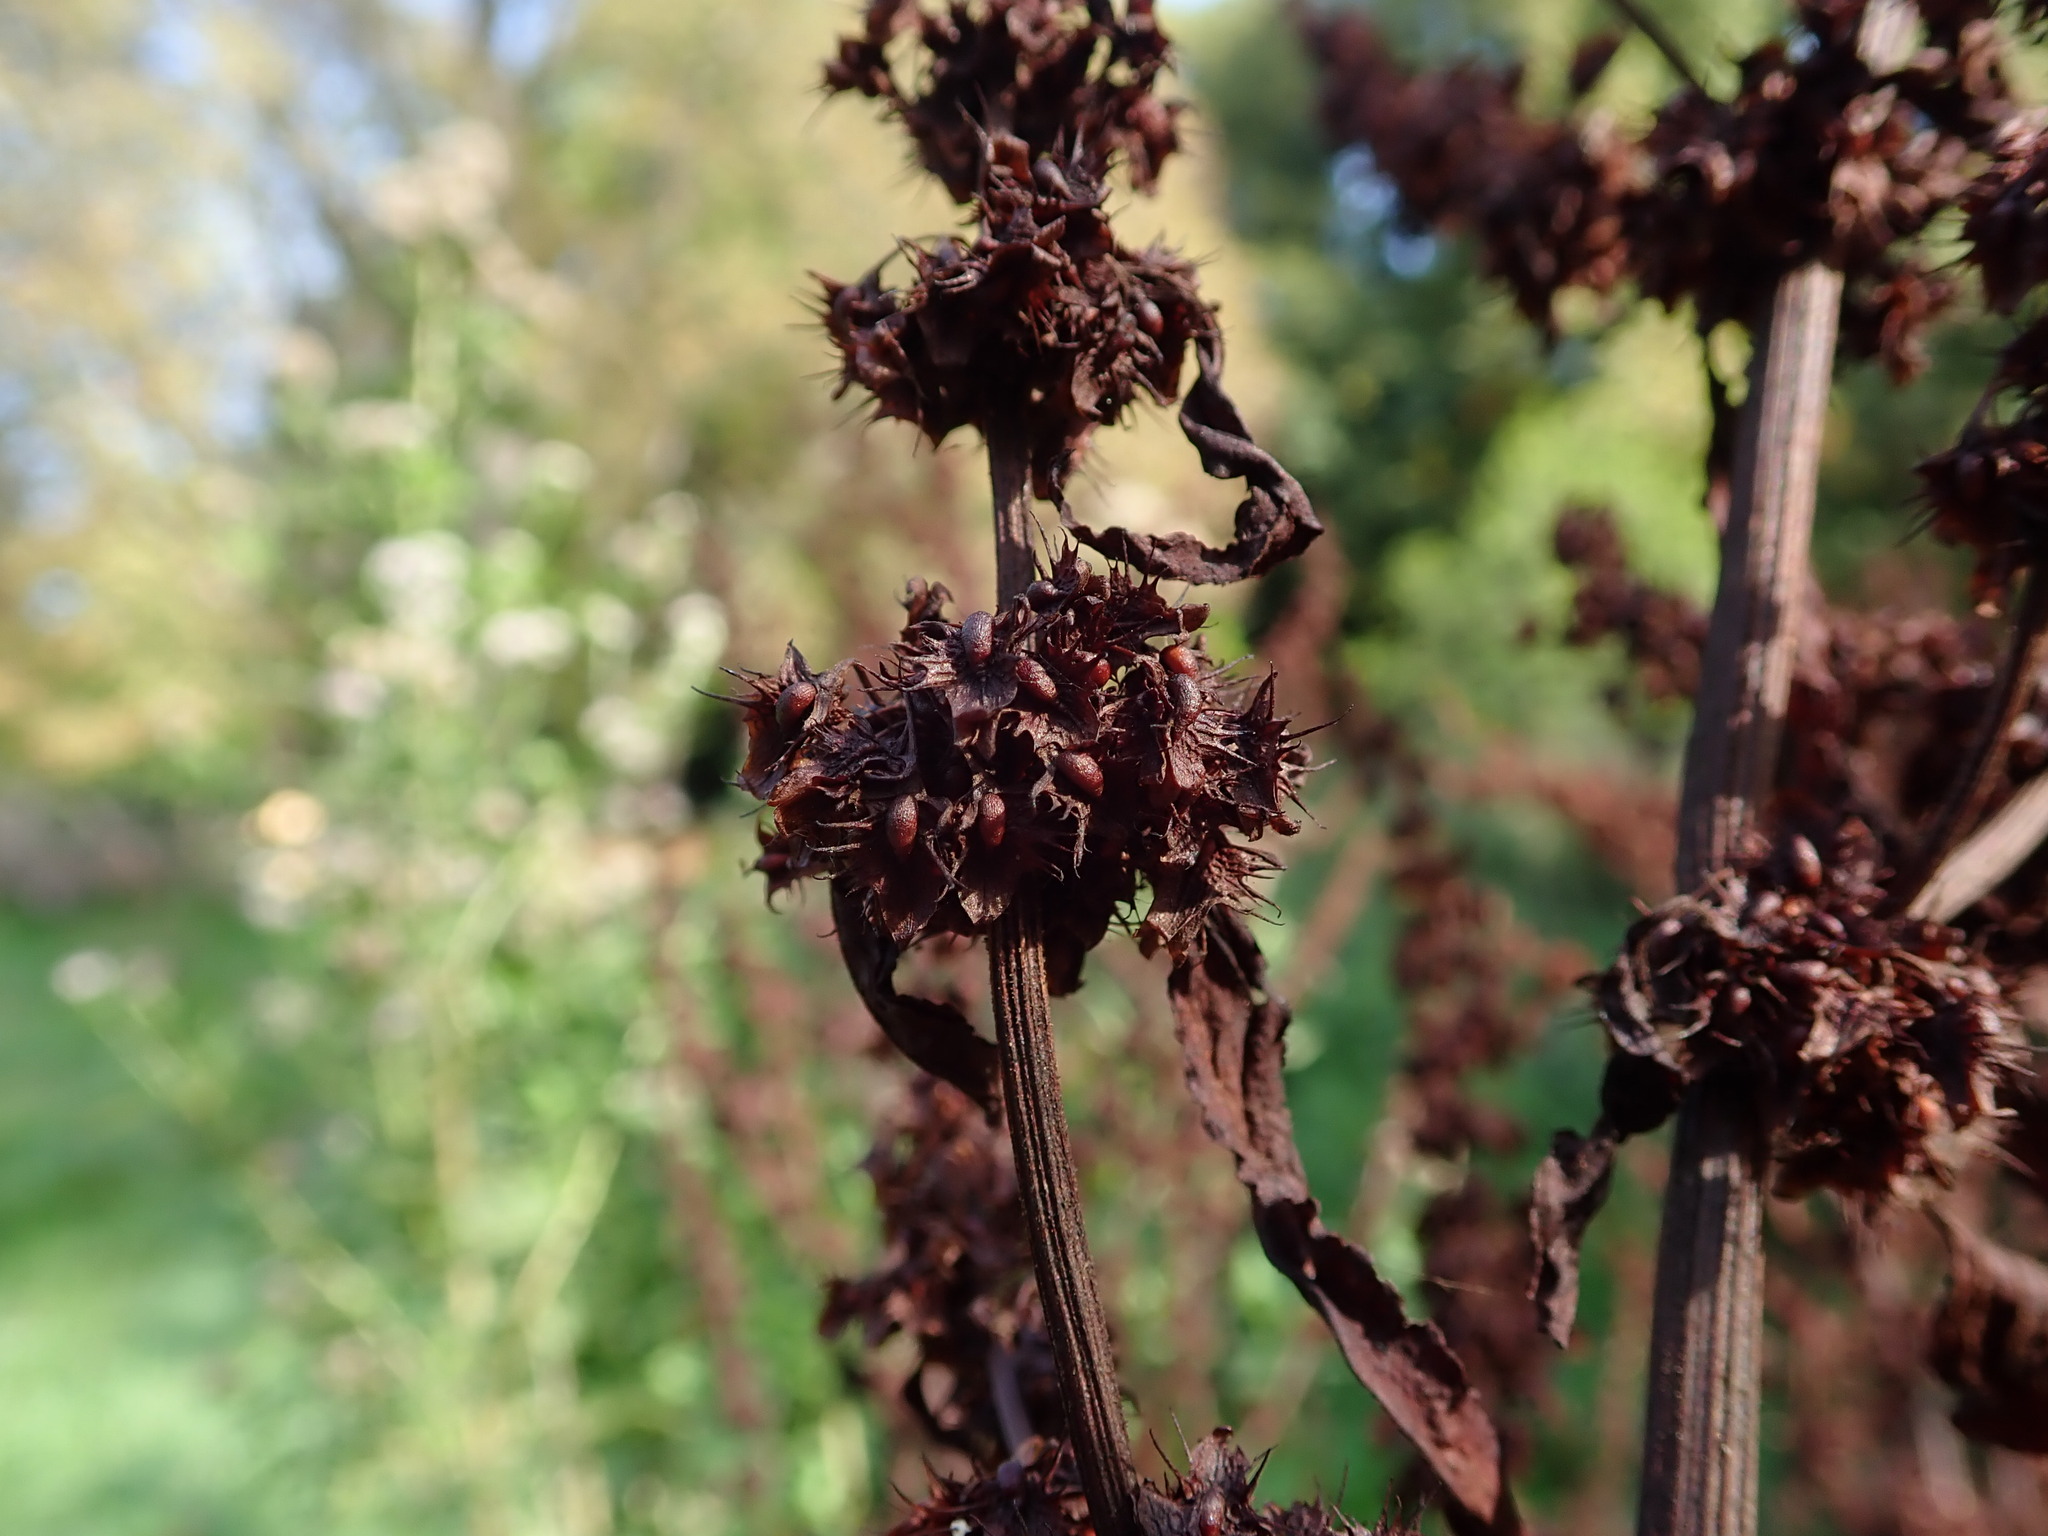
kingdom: Plantae
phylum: Tracheophyta
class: Magnoliopsida
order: Caryophyllales
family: Polygonaceae
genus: Rumex
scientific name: Rumex obtusifolius
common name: Bitter dock
